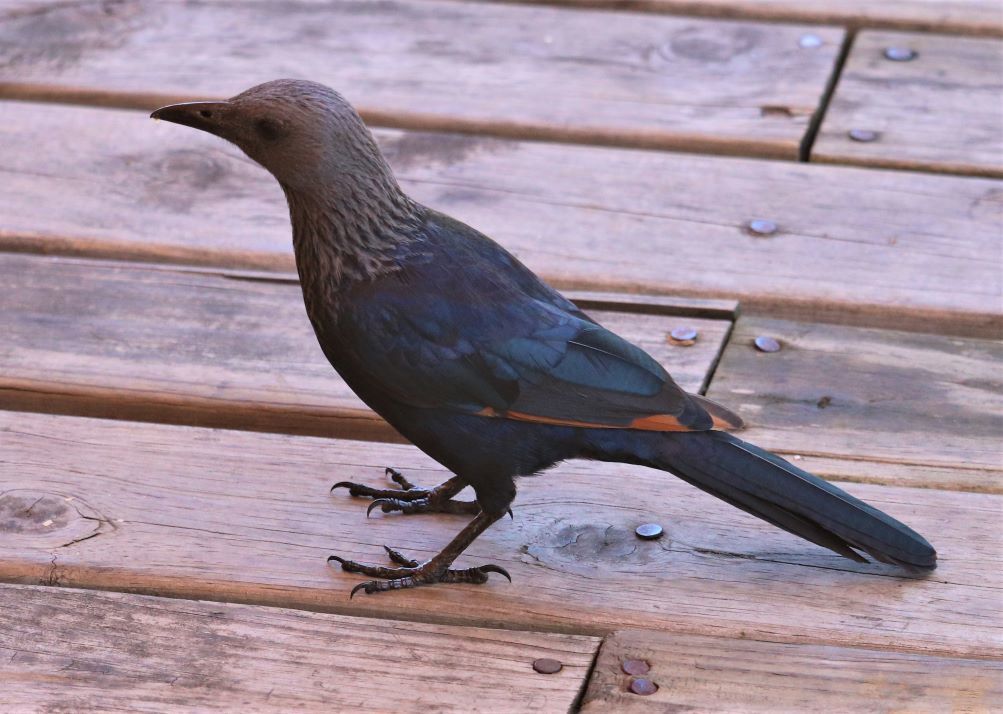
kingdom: Animalia
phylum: Chordata
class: Aves
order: Passeriformes
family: Sturnidae
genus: Onychognathus
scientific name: Onychognathus morio
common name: Red-winged starling
